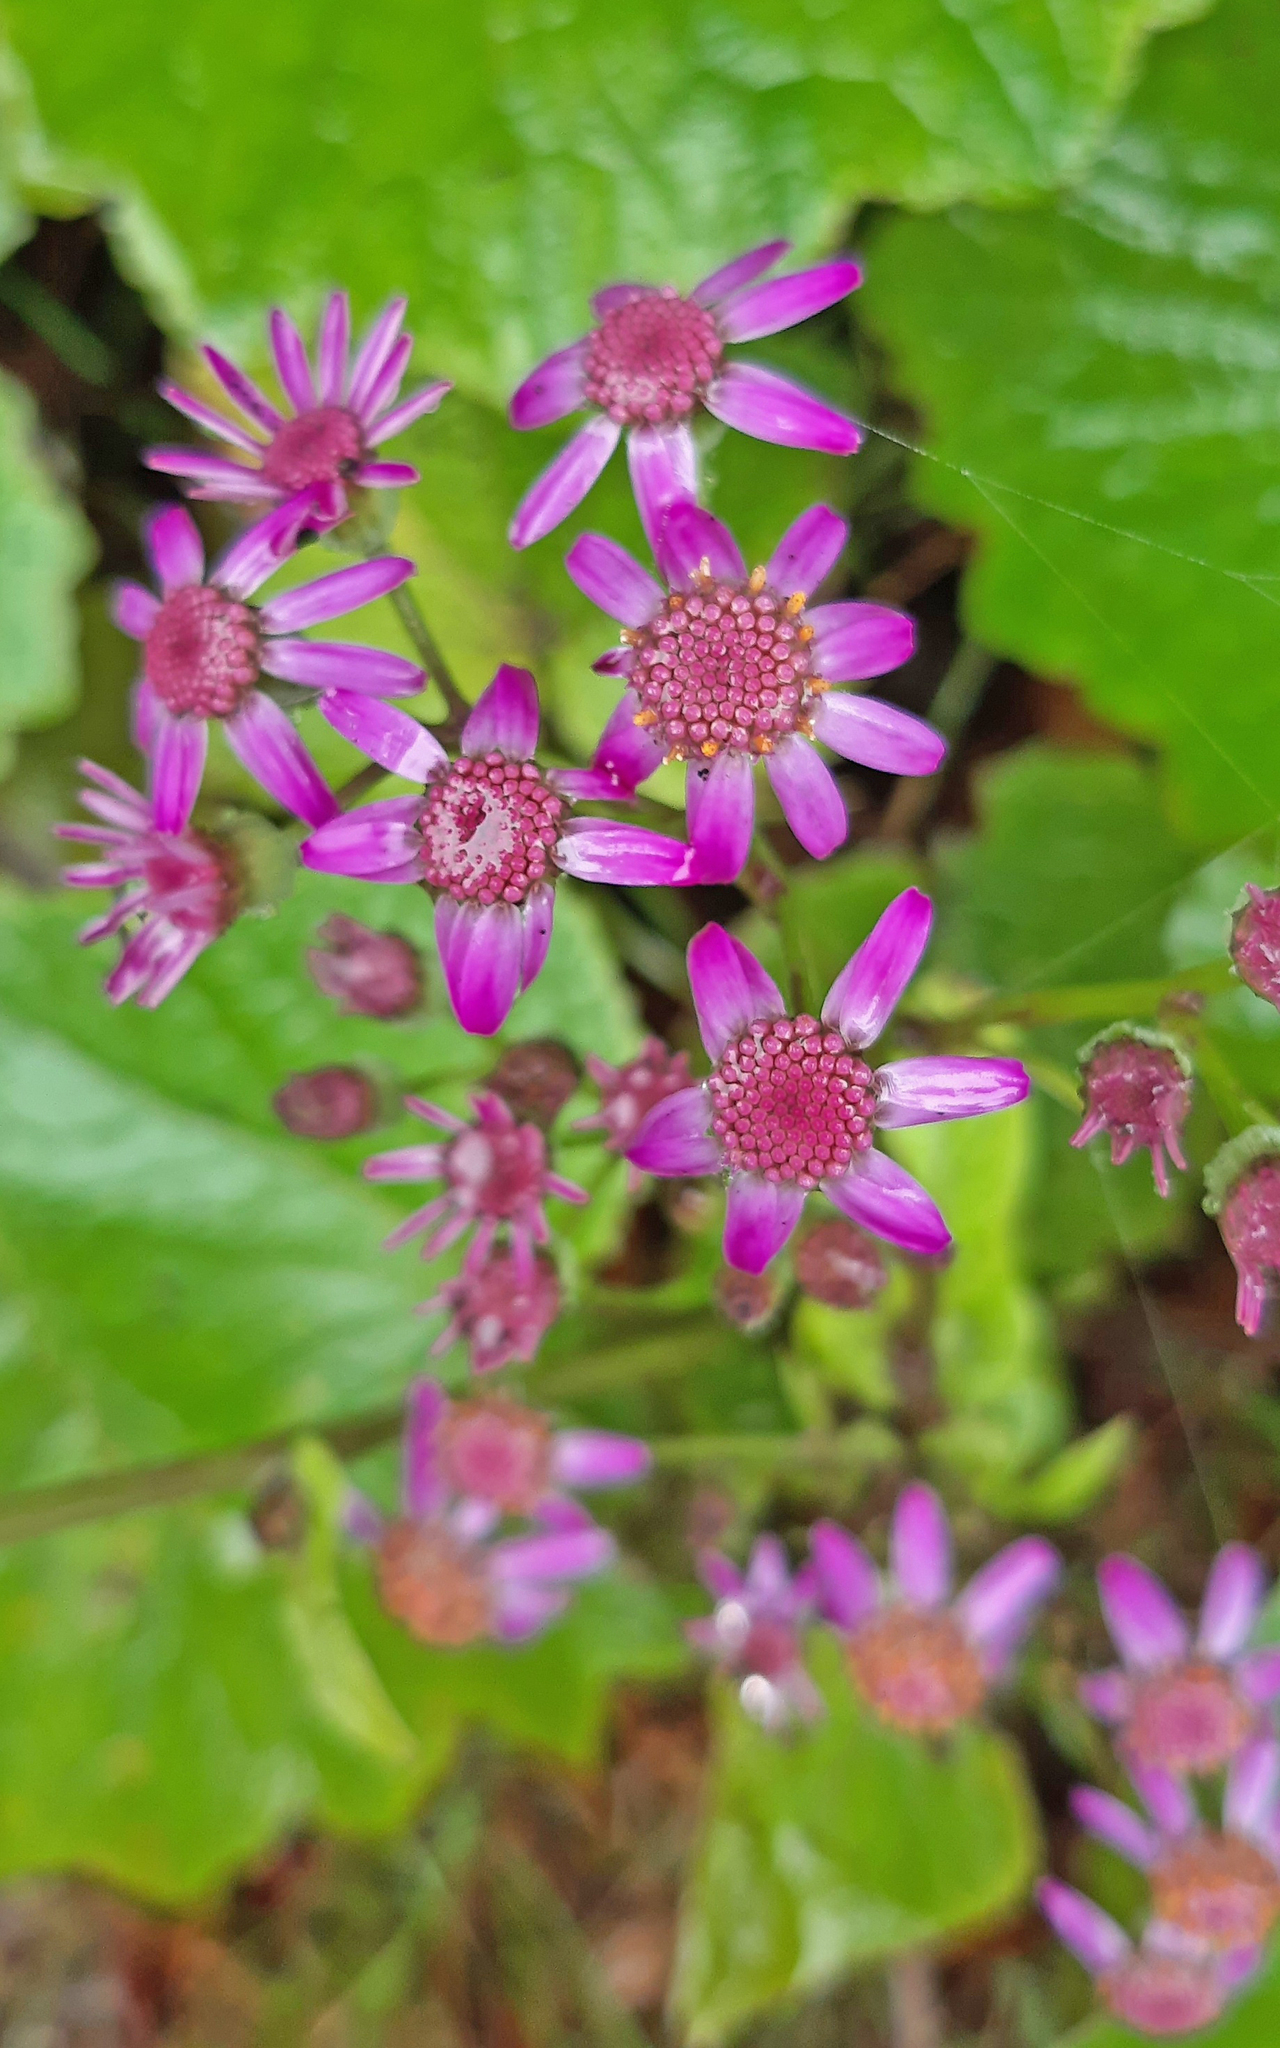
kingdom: Plantae
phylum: Tracheophyta
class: Magnoliopsida
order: Asterales
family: Asteraceae
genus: Pericallis
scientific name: Pericallis steetzii
